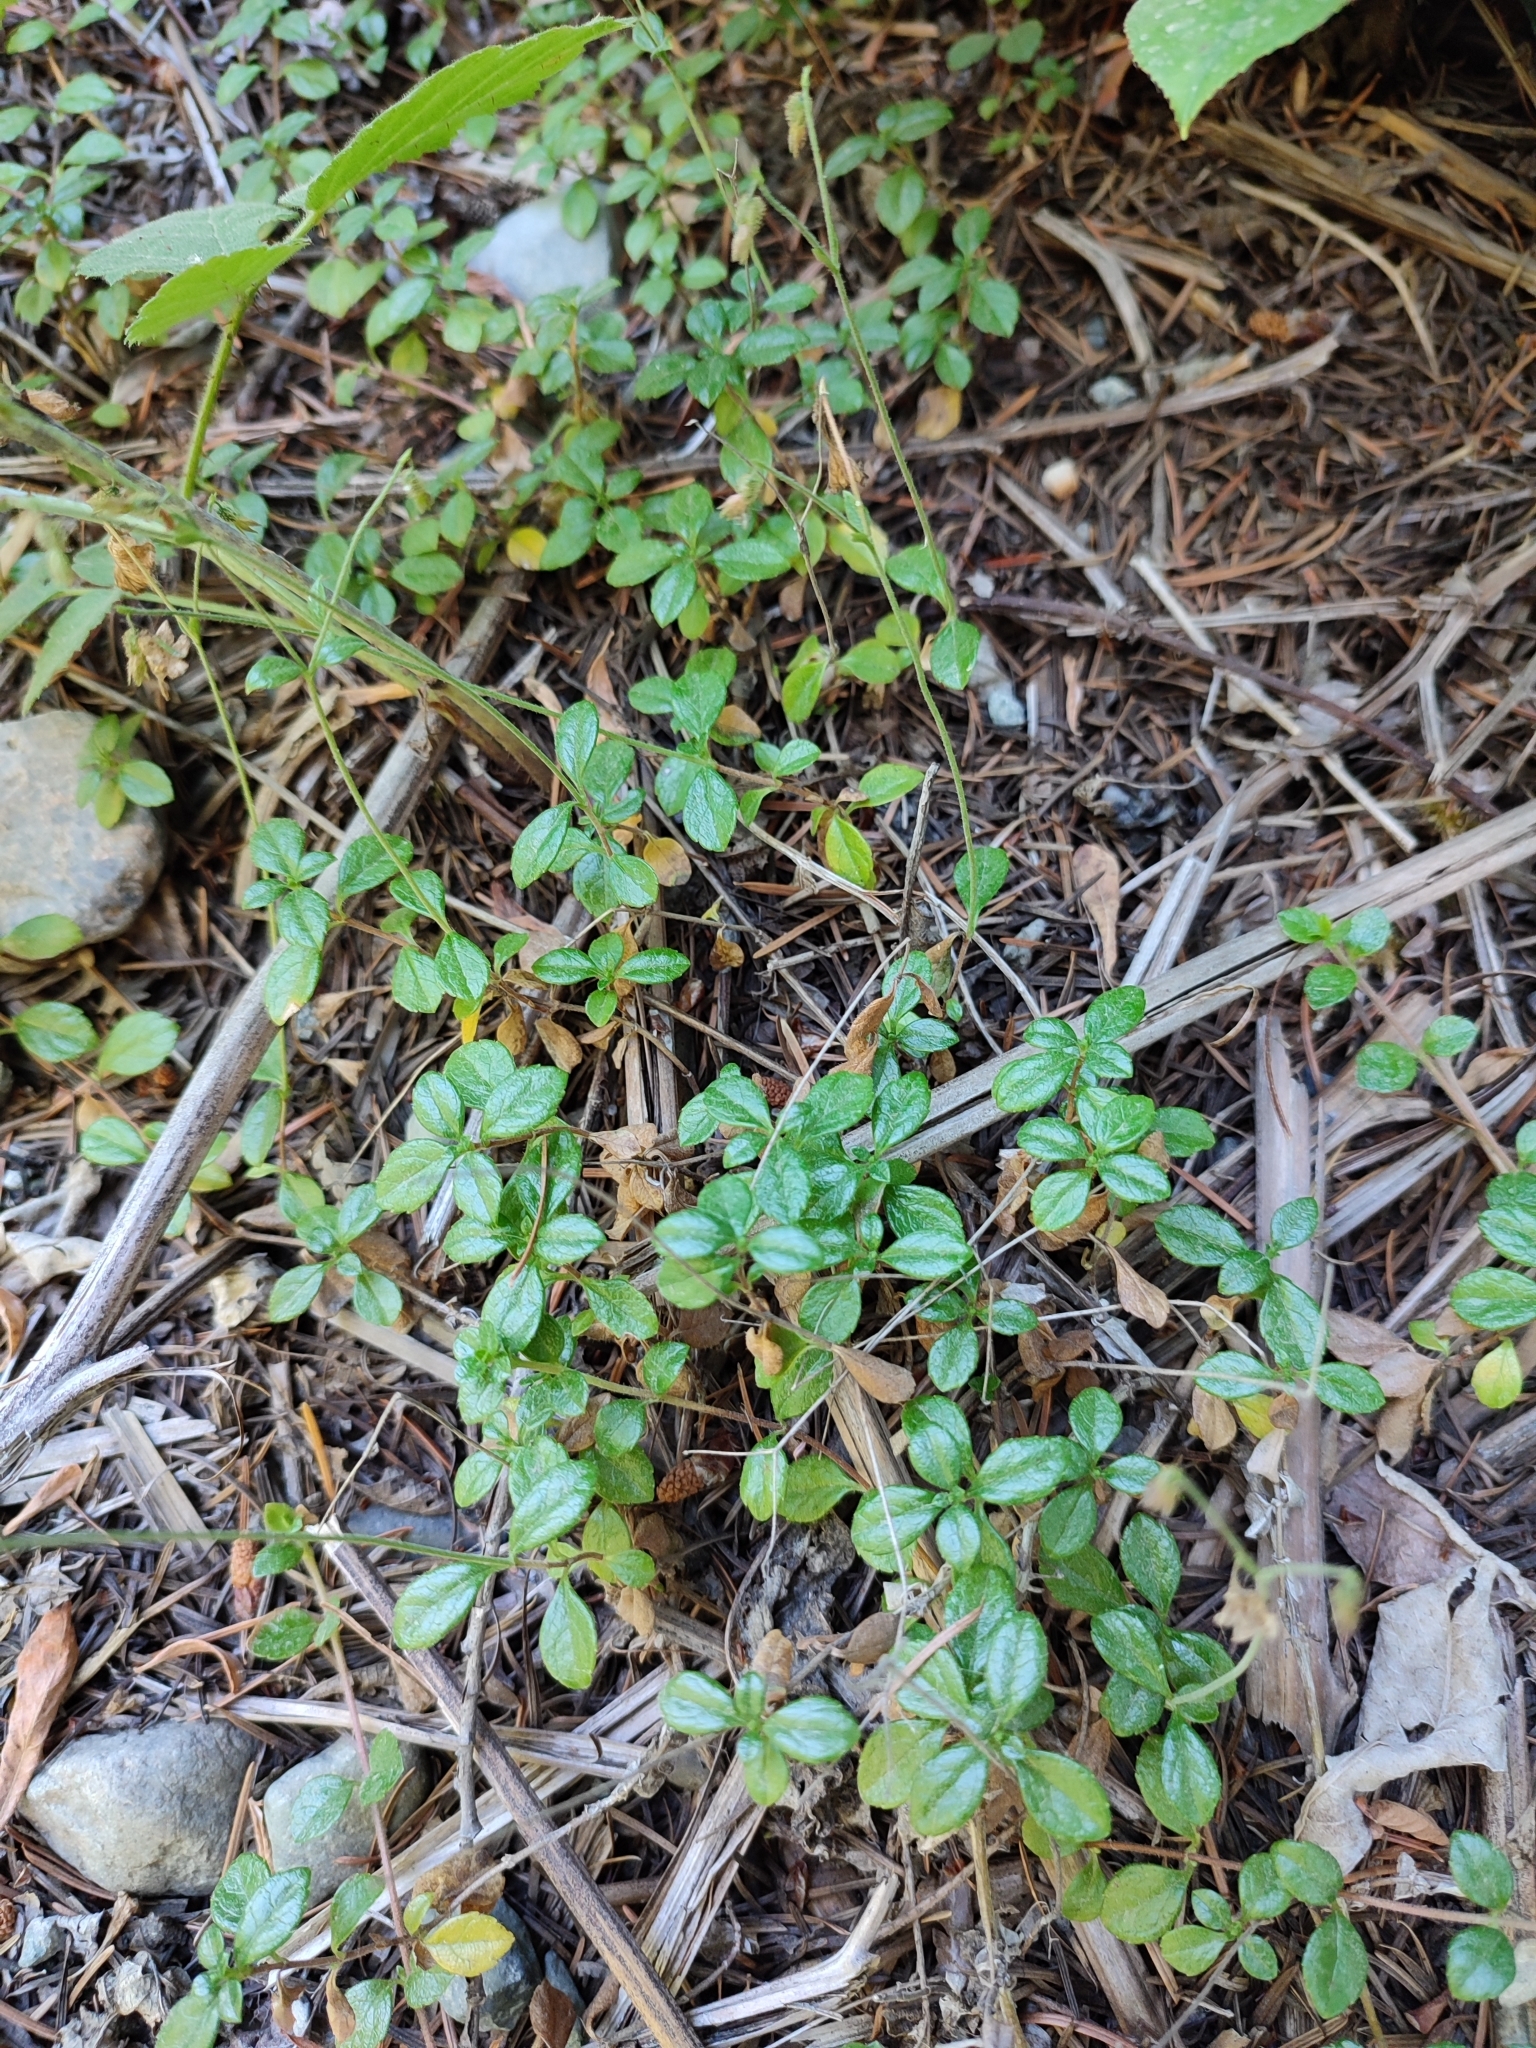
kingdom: Plantae
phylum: Tracheophyta
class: Magnoliopsida
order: Dipsacales
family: Caprifoliaceae
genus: Linnaea
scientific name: Linnaea borealis
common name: Twinflower
